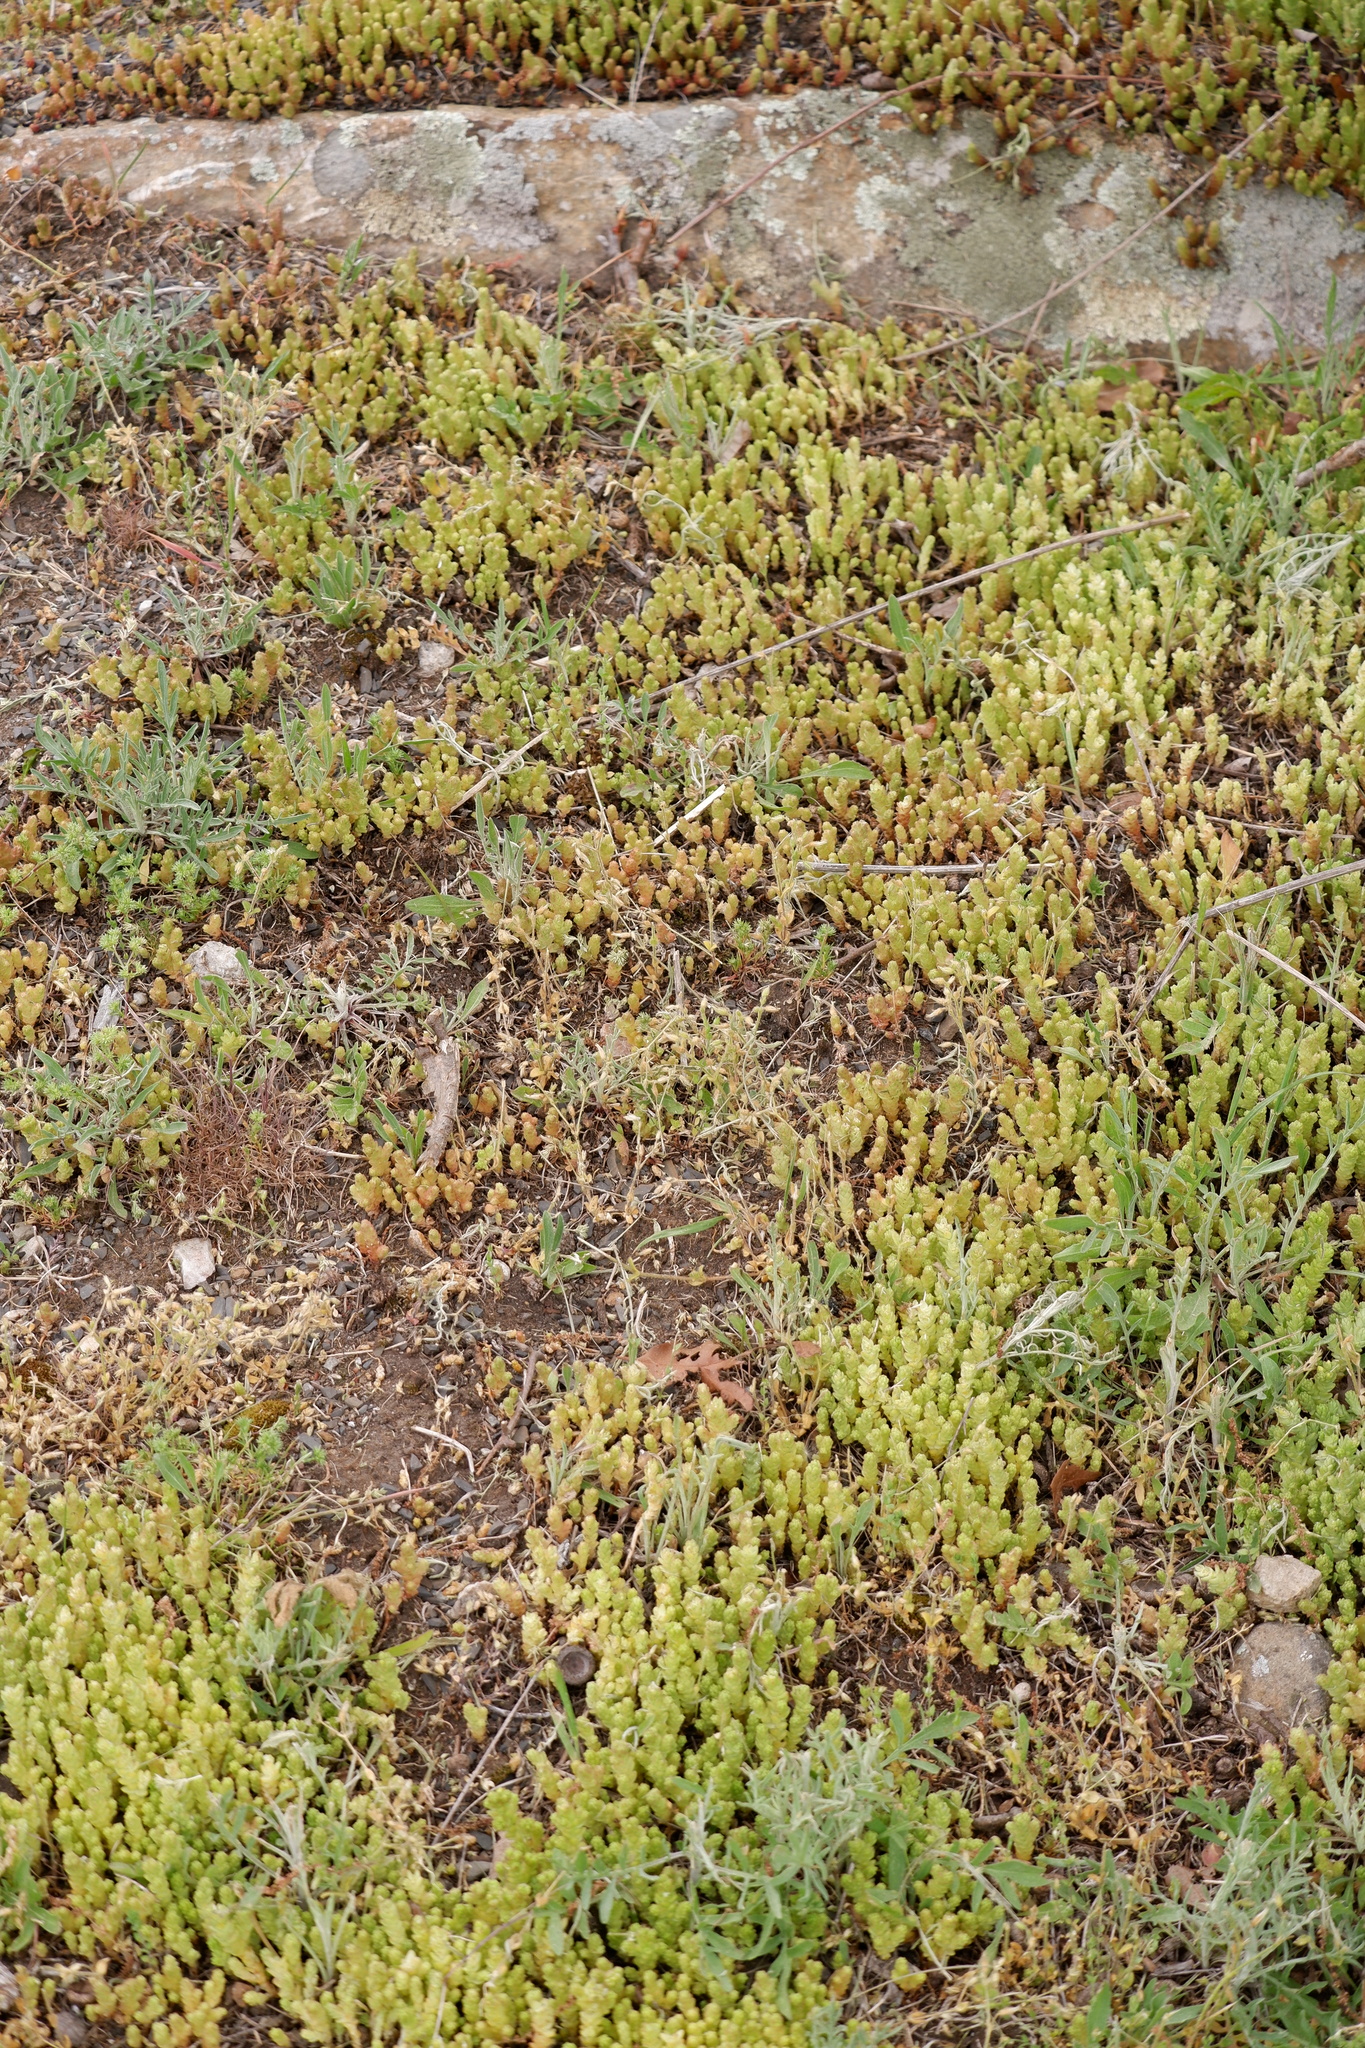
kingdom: Plantae
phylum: Tracheophyta
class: Magnoliopsida
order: Saxifragales
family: Crassulaceae
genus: Sedum
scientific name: Sedum acre
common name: Biting stonecrop
